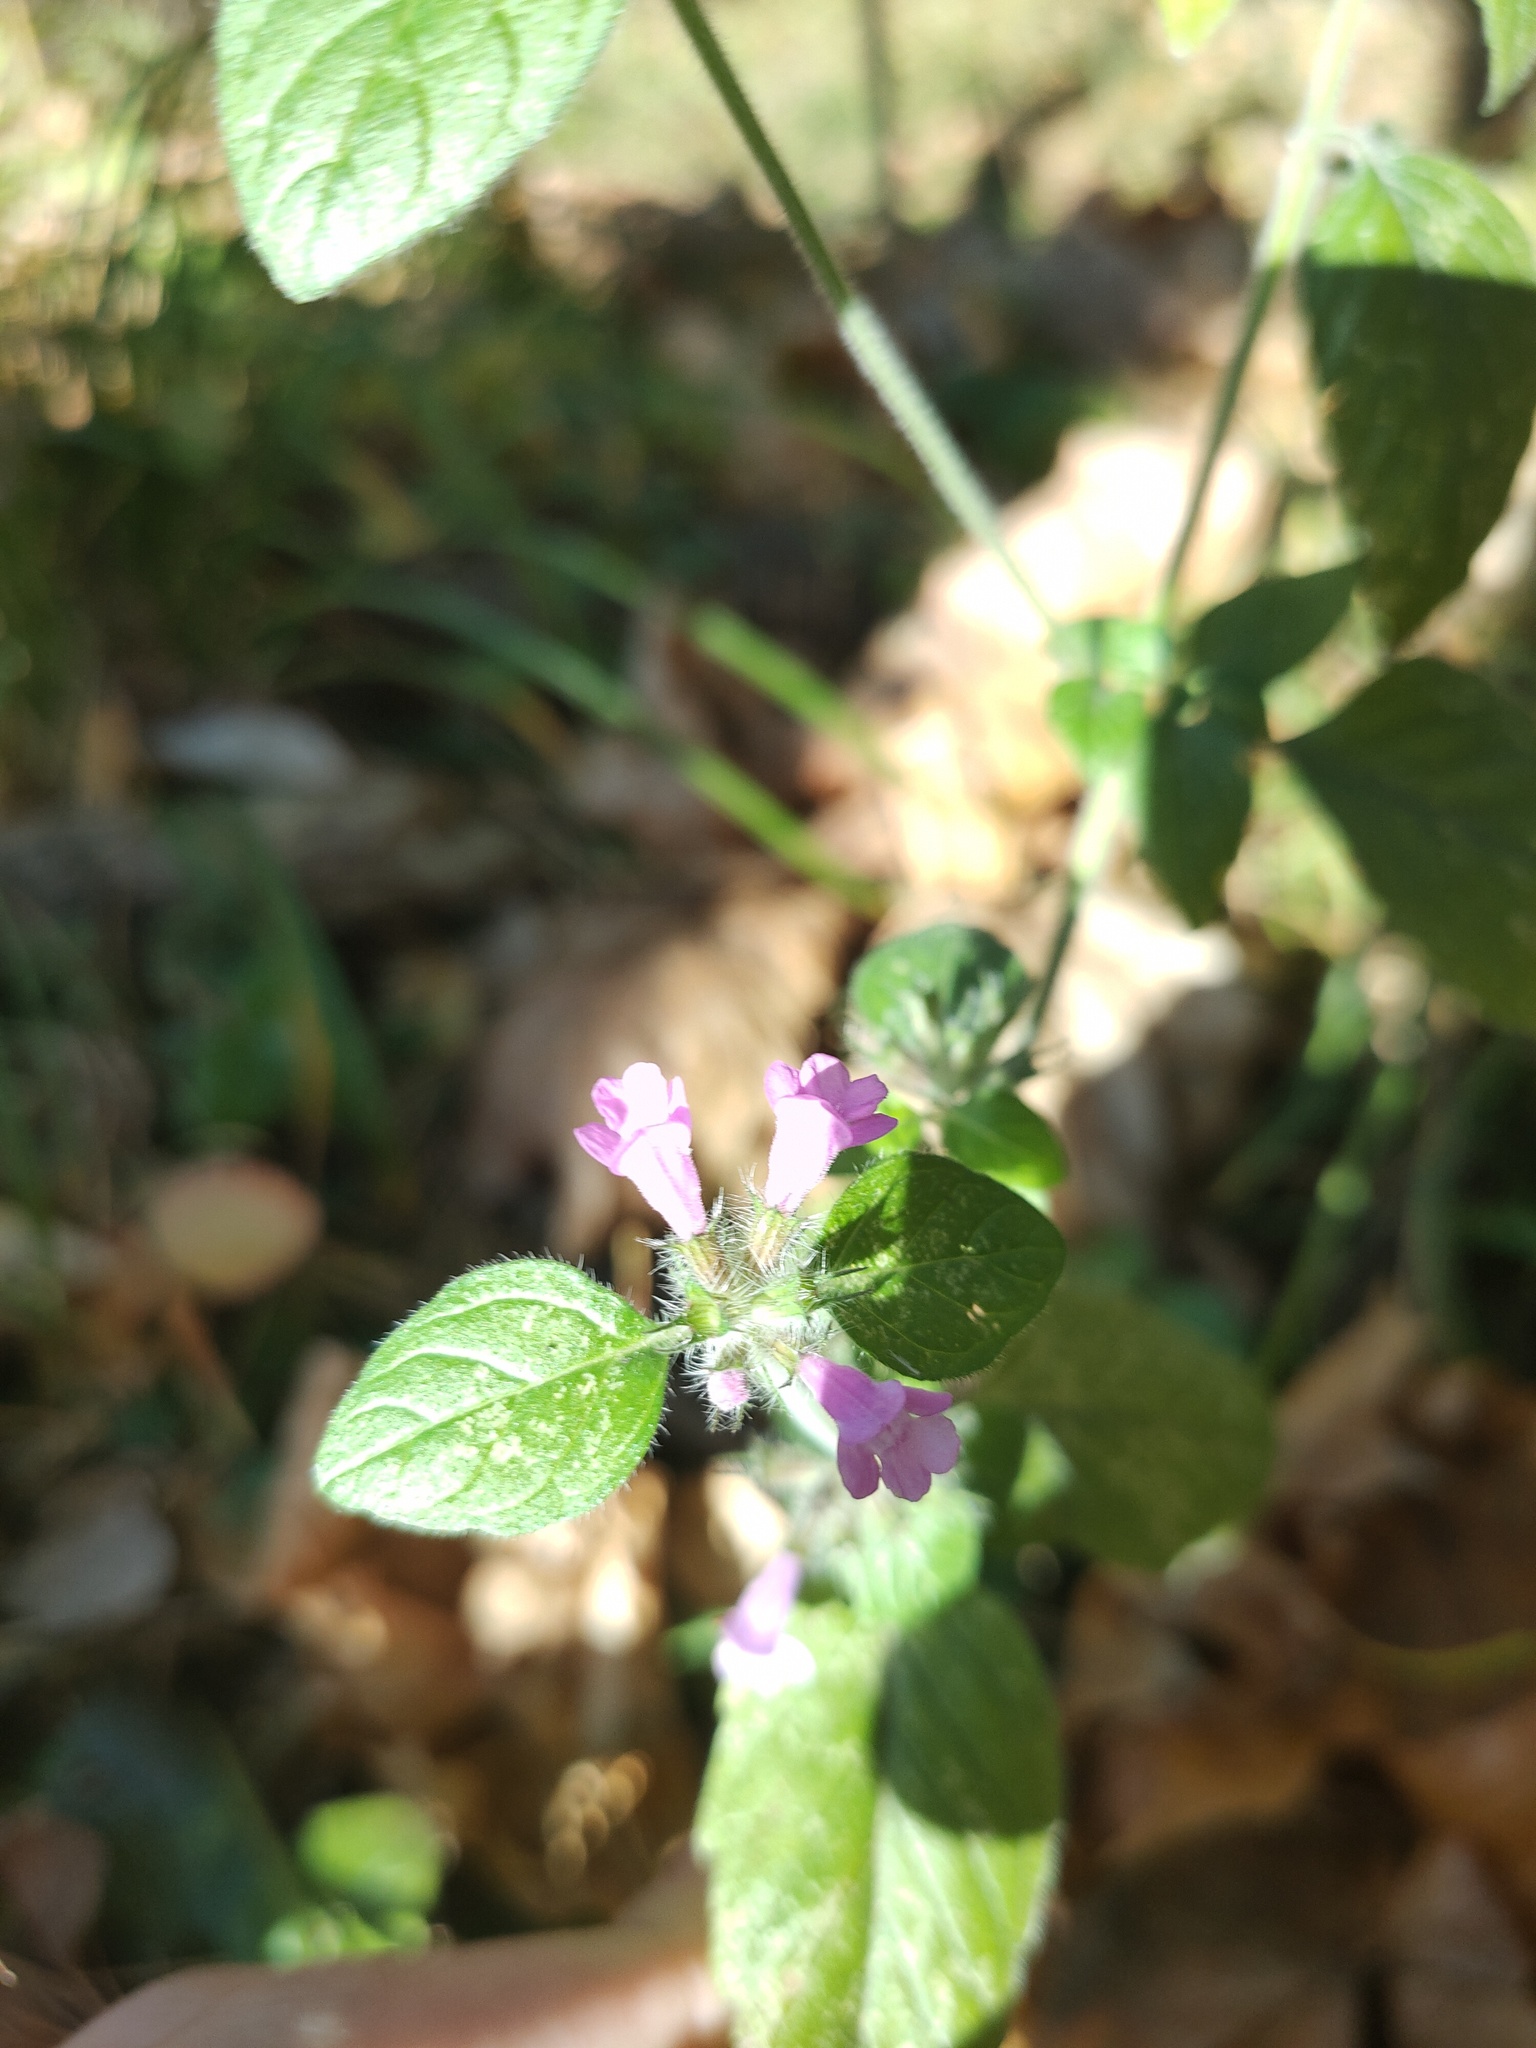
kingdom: Plantae
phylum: Tracheophyta
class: Magnoliopsida
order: Lamiales
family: Lamiaceae
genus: Clinopodium
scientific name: Clinopodium vulgare
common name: Wild basil
